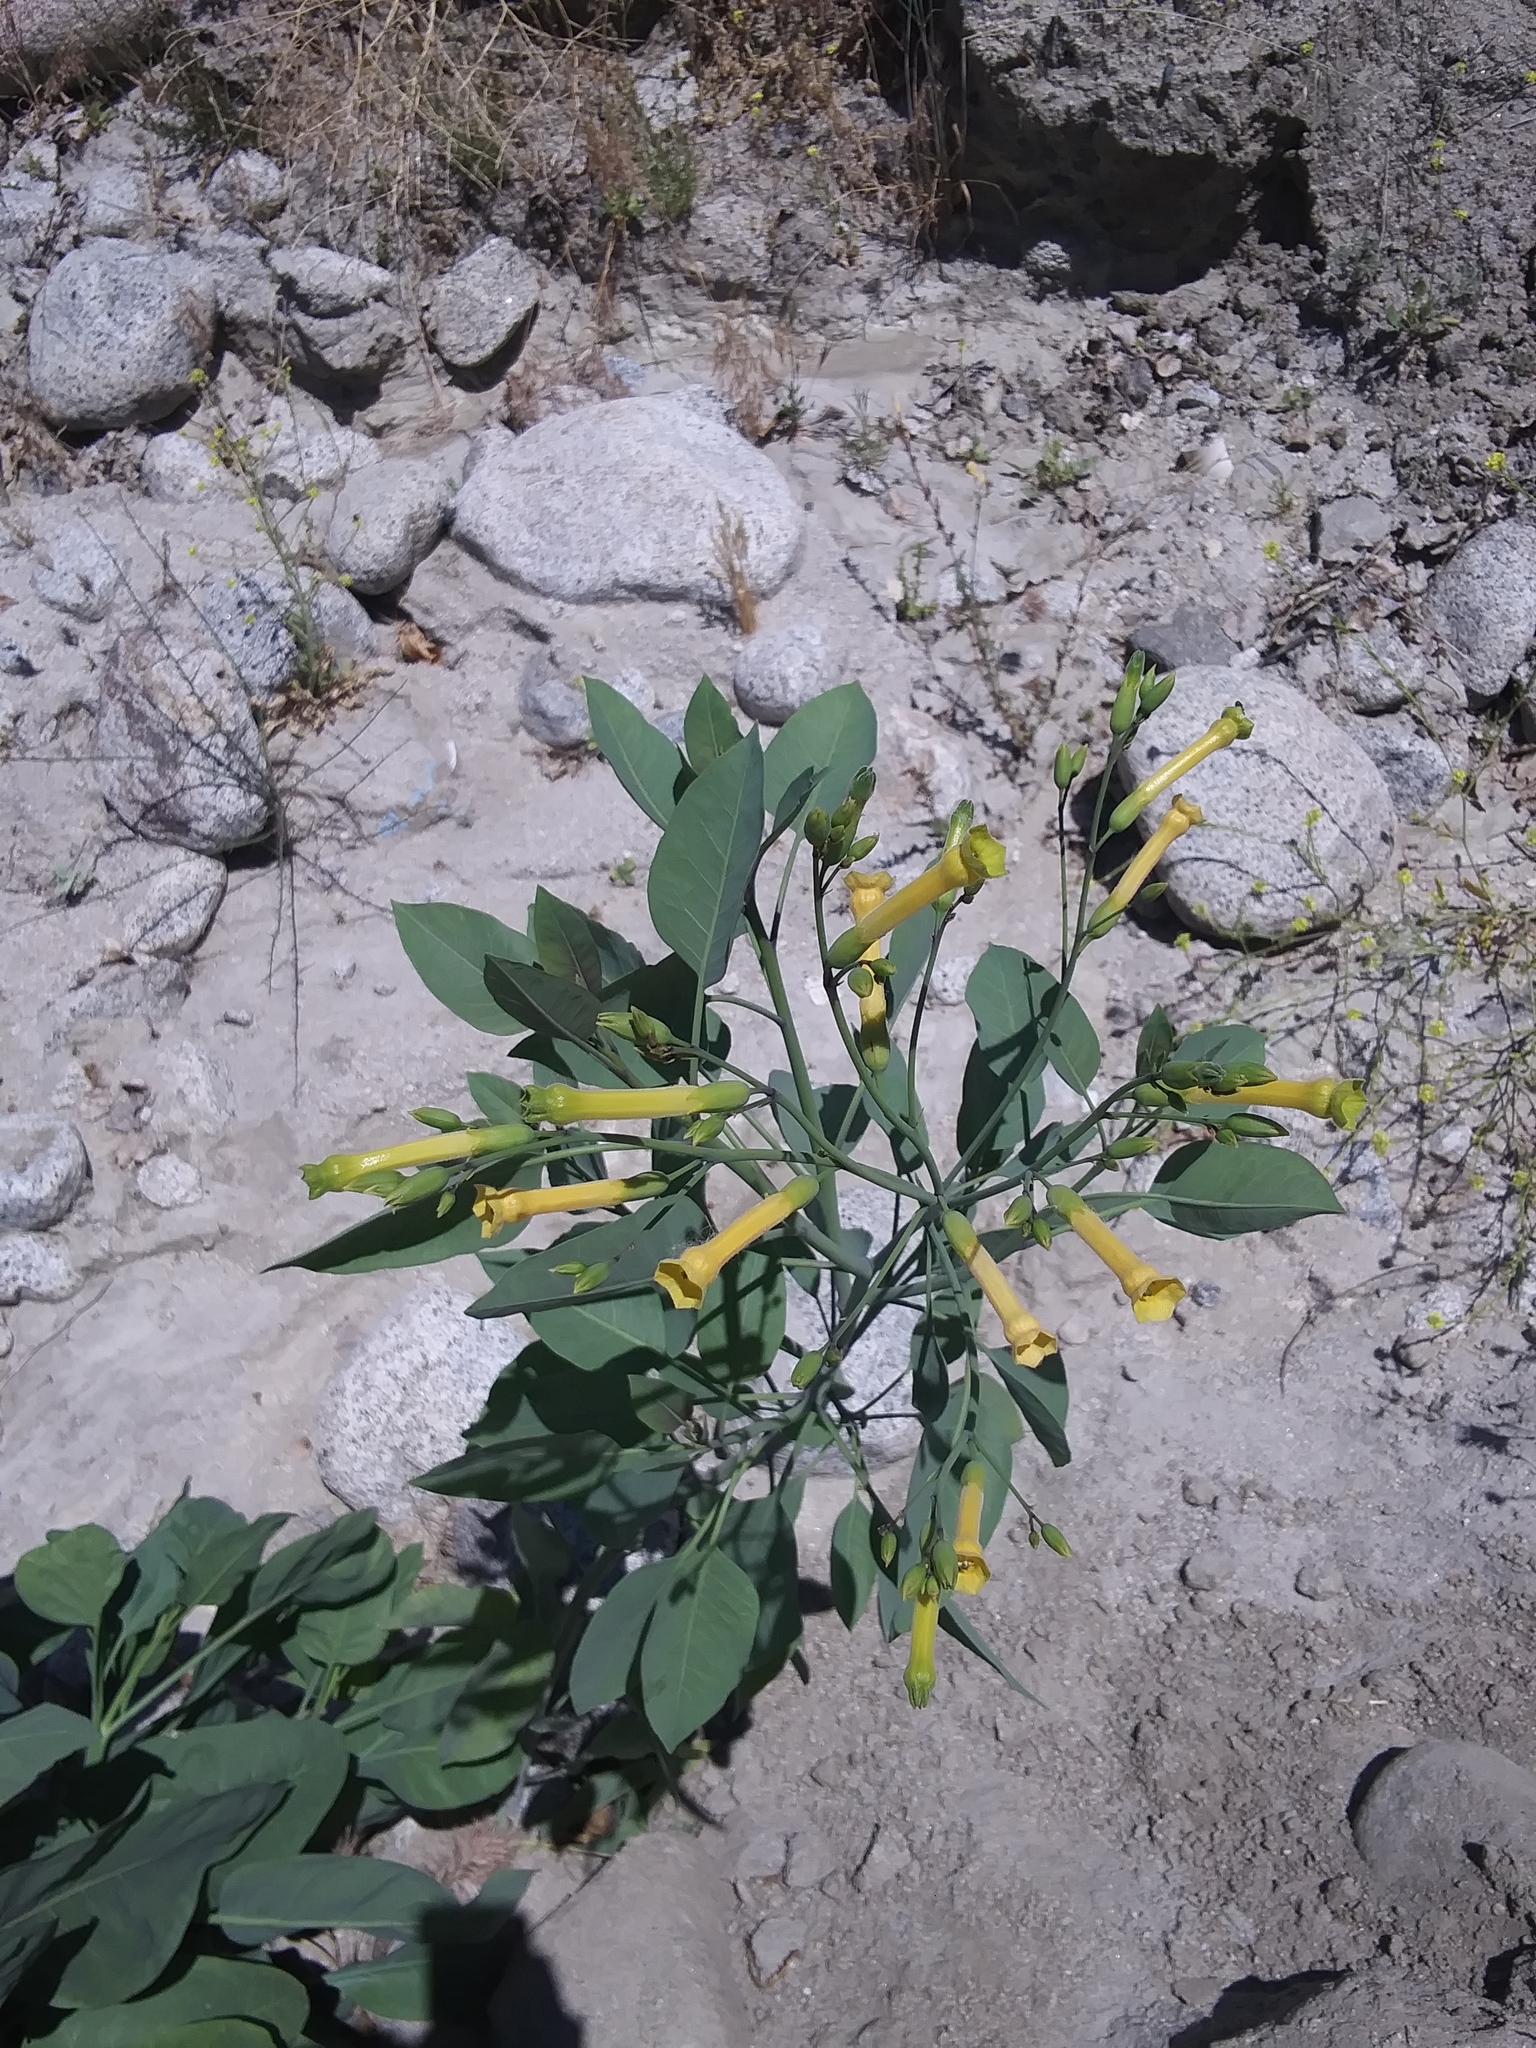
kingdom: Plantae
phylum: Tracheophyta
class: Magnoliopsida
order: Solanales
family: Solanaceae
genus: Nicotiana
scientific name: Nicotiana glauca
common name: Tree tobacco
